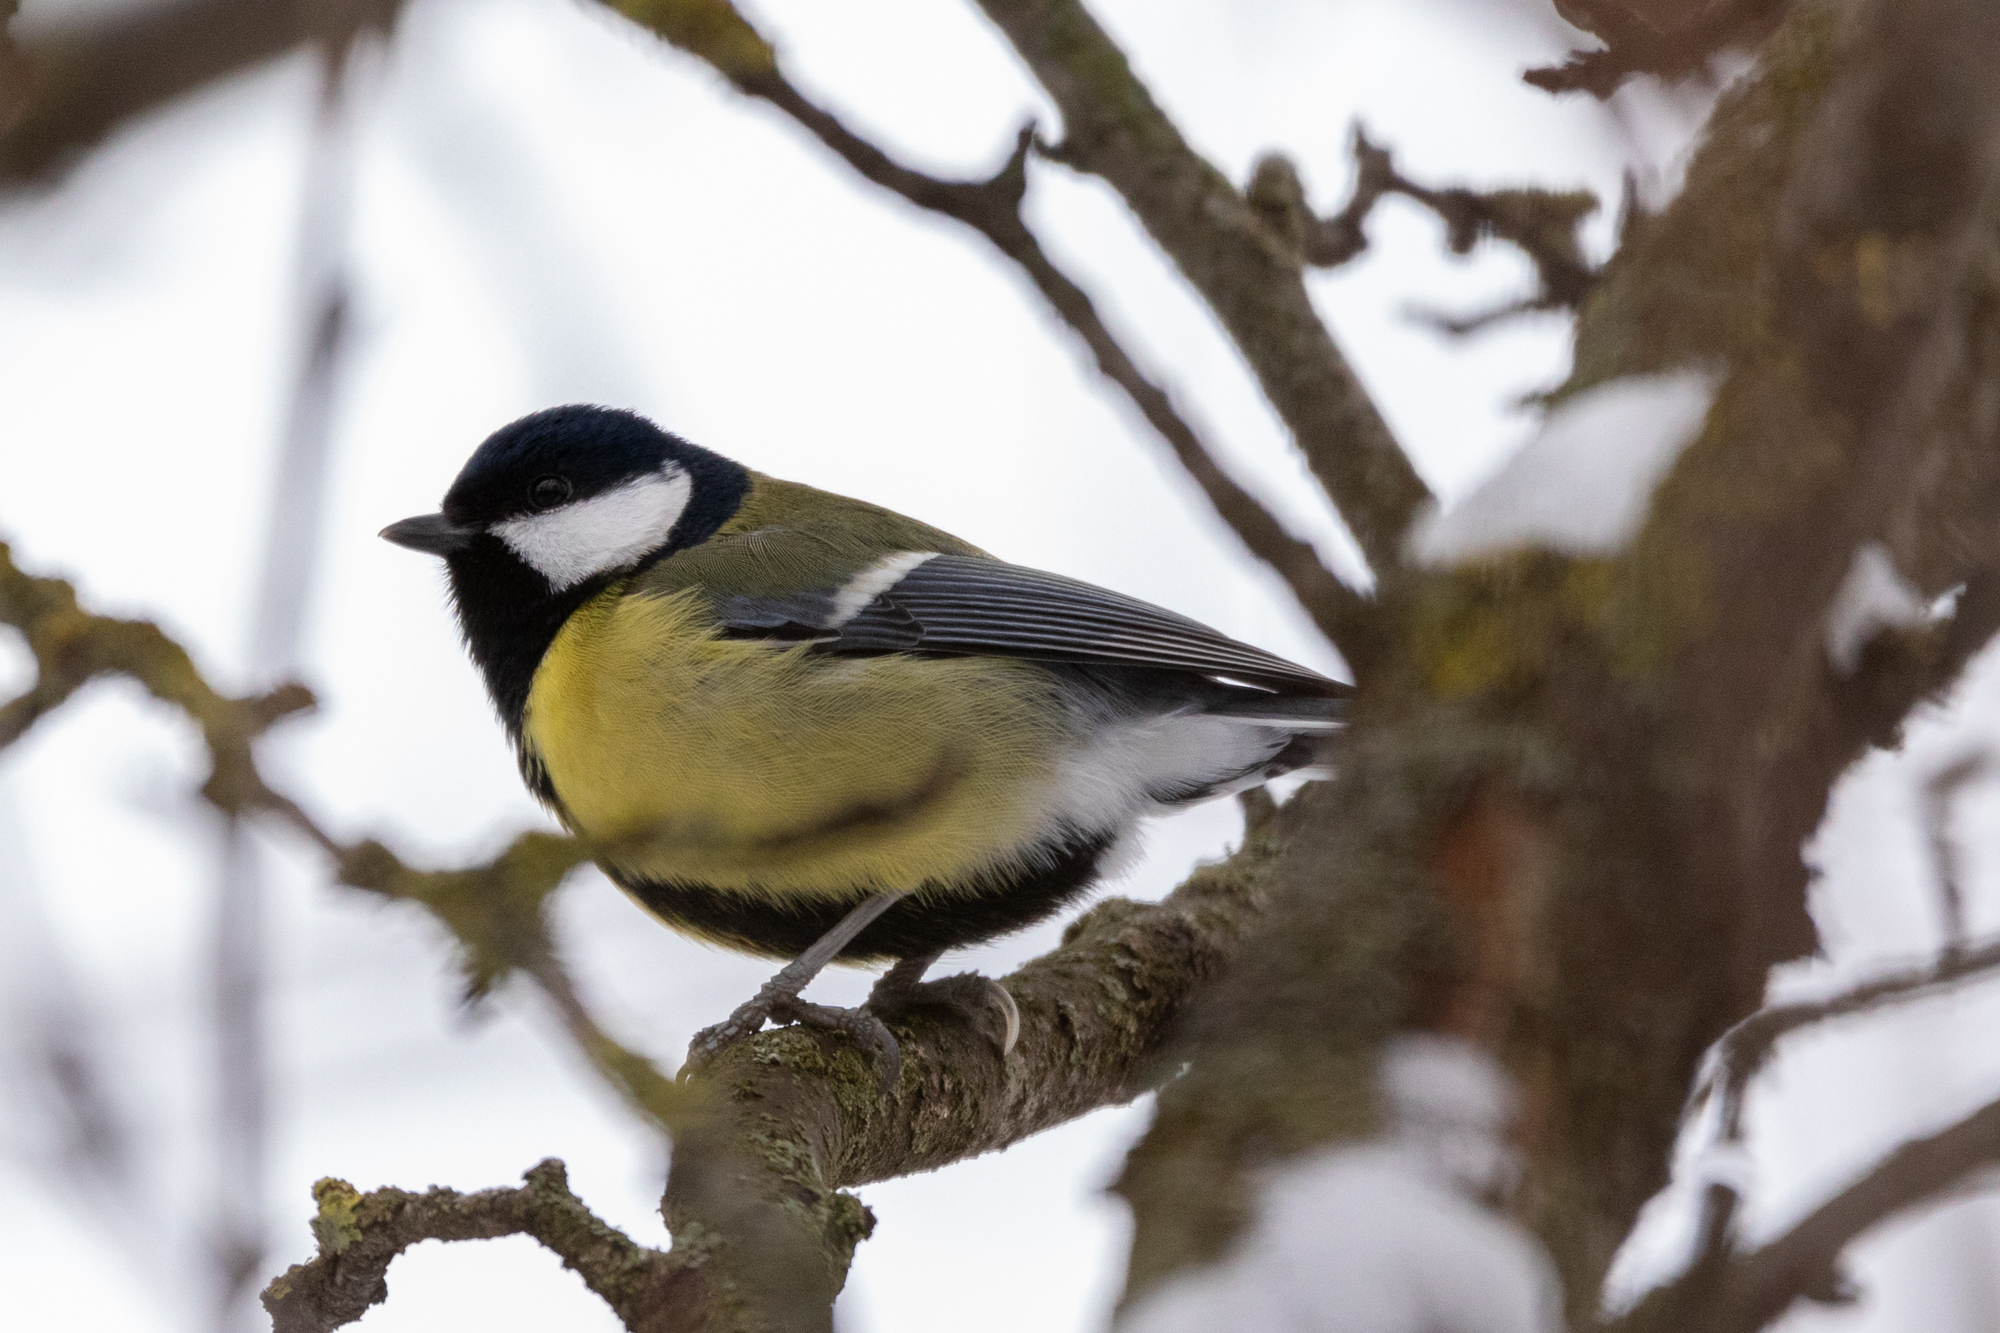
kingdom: Animalia
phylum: Chordata
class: Aves
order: Passeriformes
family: Paridae
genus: Parus
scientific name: Parus major
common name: Great tit
